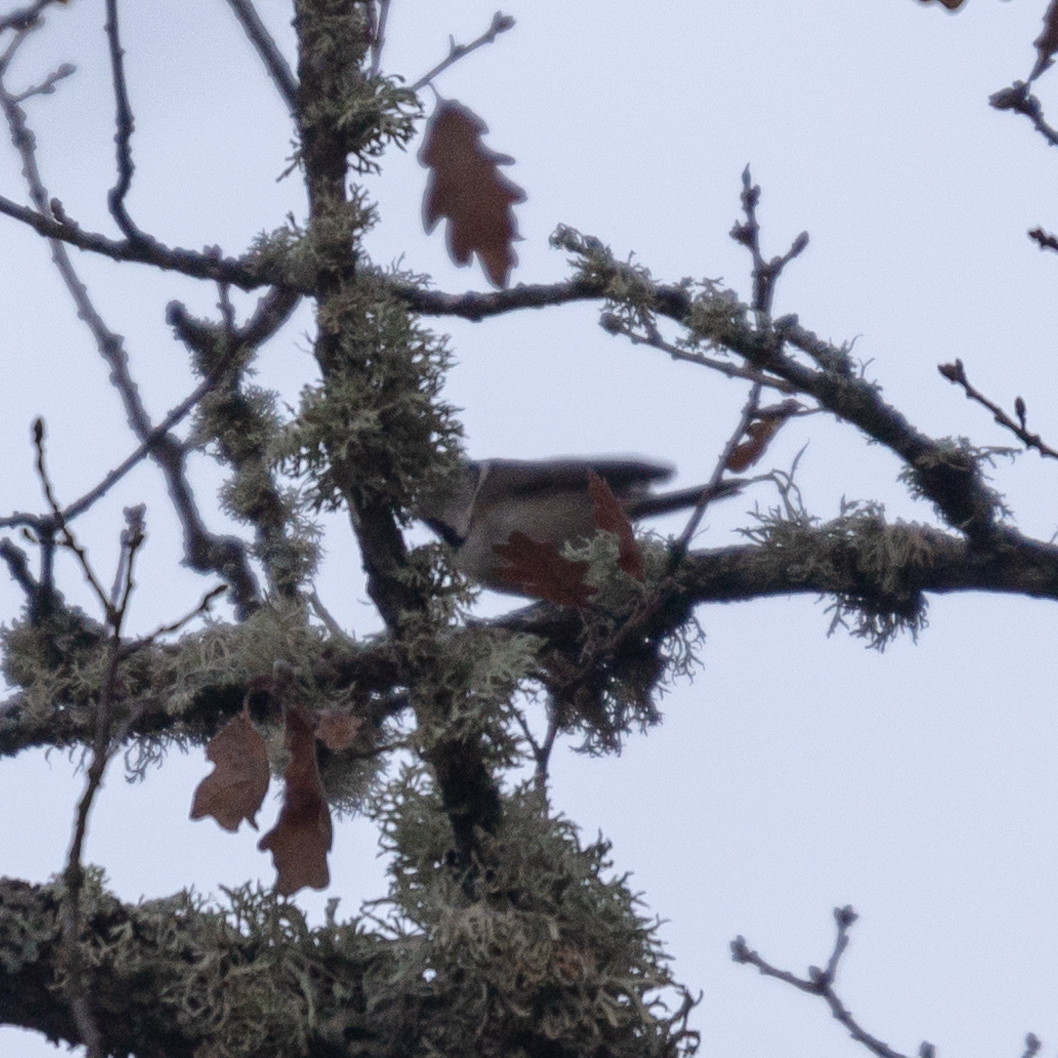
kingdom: Animalia
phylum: Chordata
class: Aves
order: Passeriformes
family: Paridae
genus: Lophophanes
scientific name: Lophophanes cristatus
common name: European crested tit
